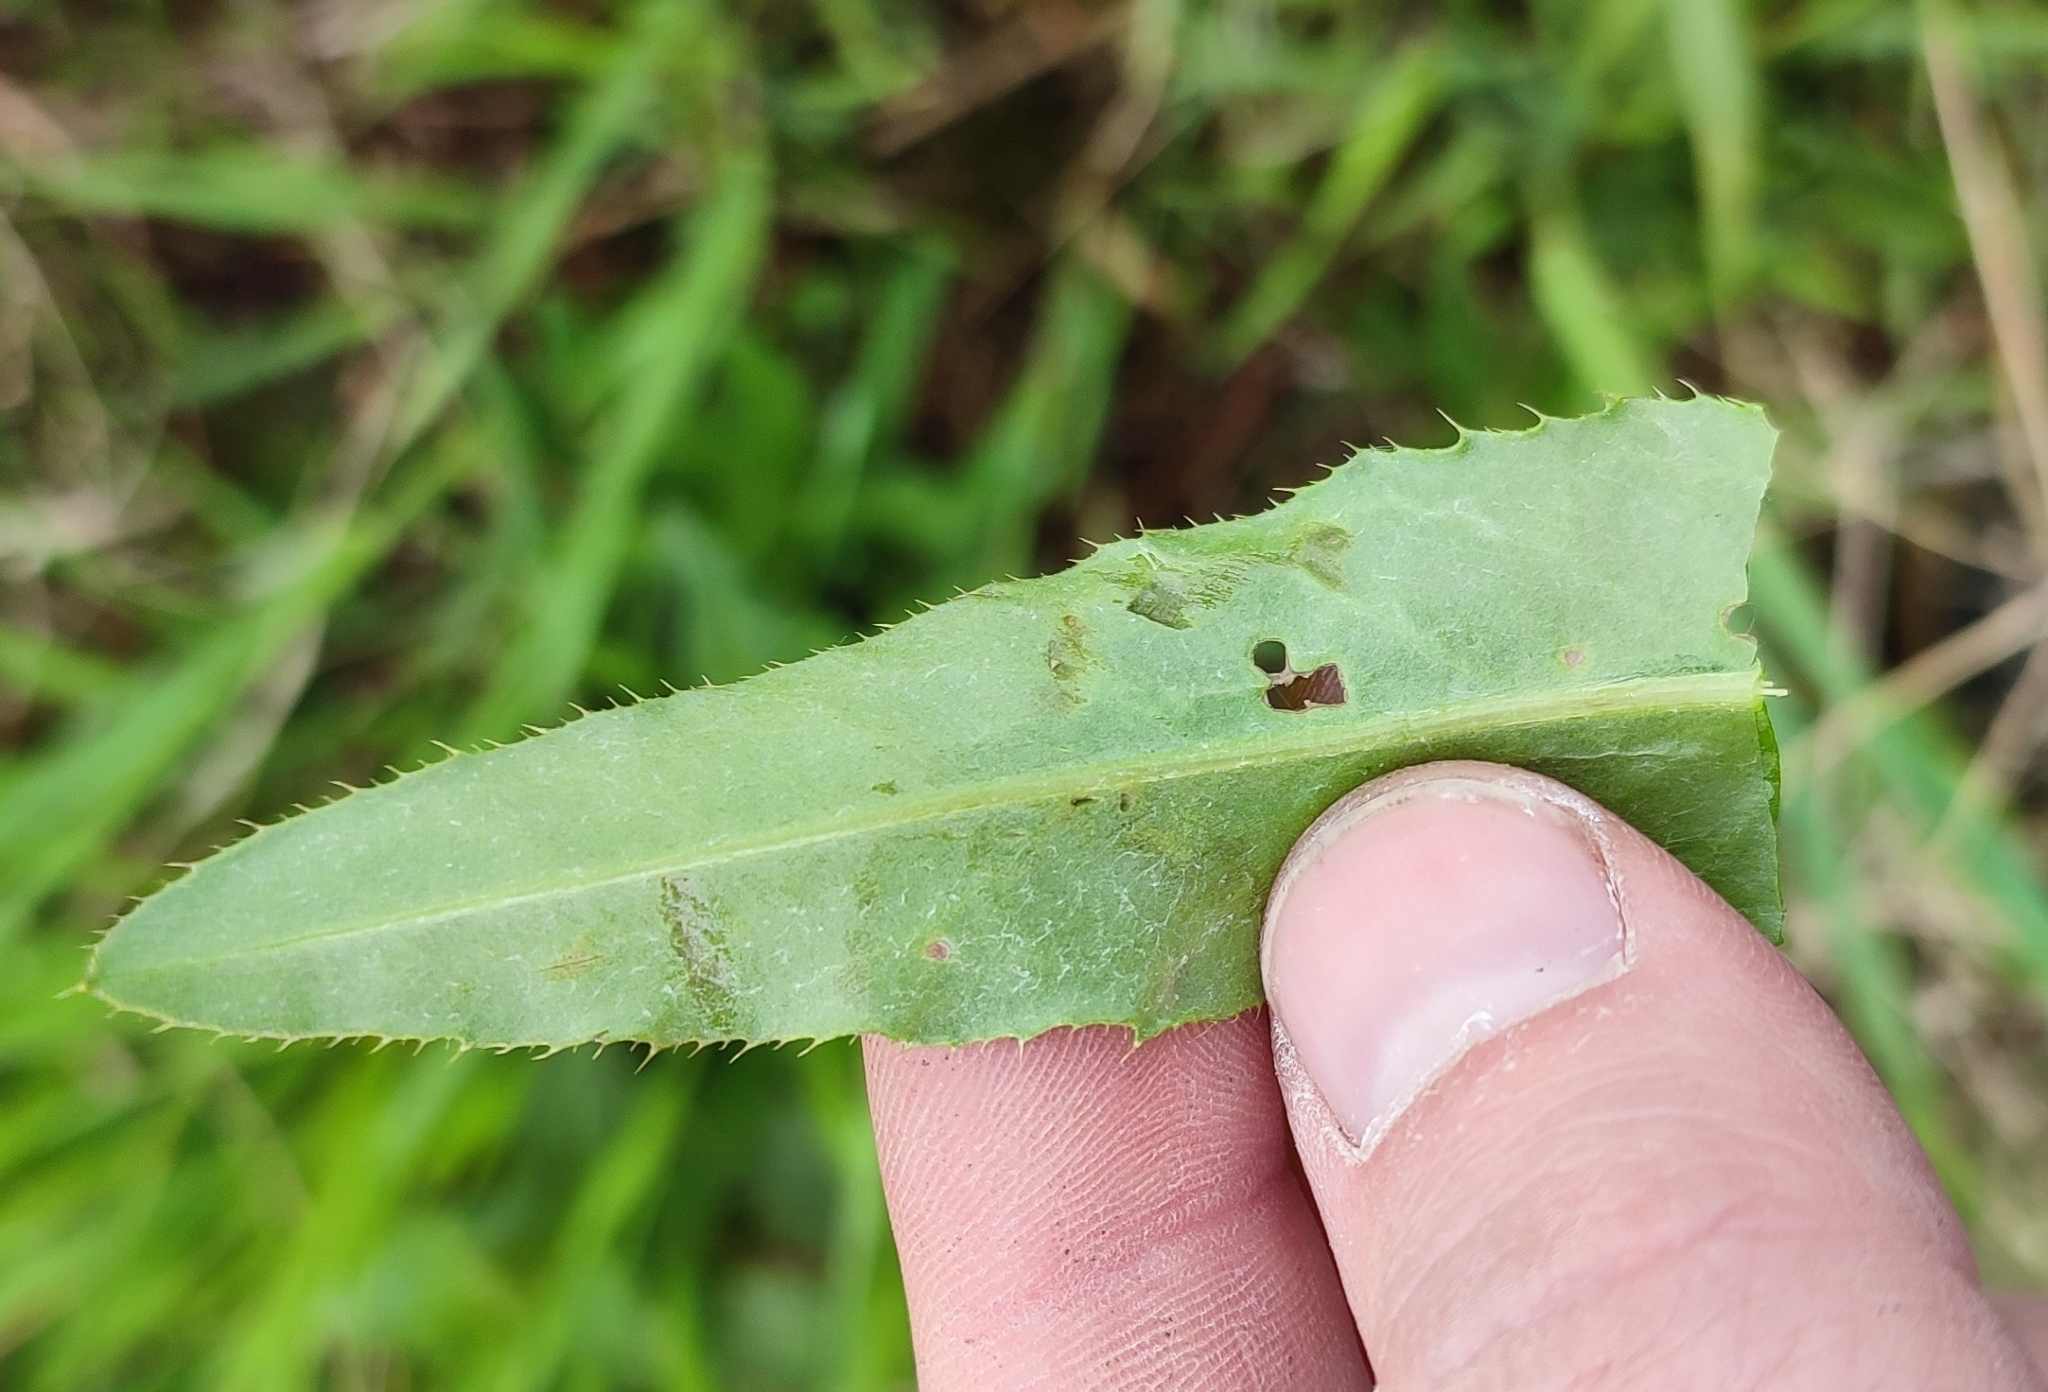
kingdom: Plantae
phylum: Tracheophyta
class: Magnoliopsida
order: Asterales
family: Asteraceae
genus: Cirsium
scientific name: Cirsium arvense
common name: Creeping thistle
